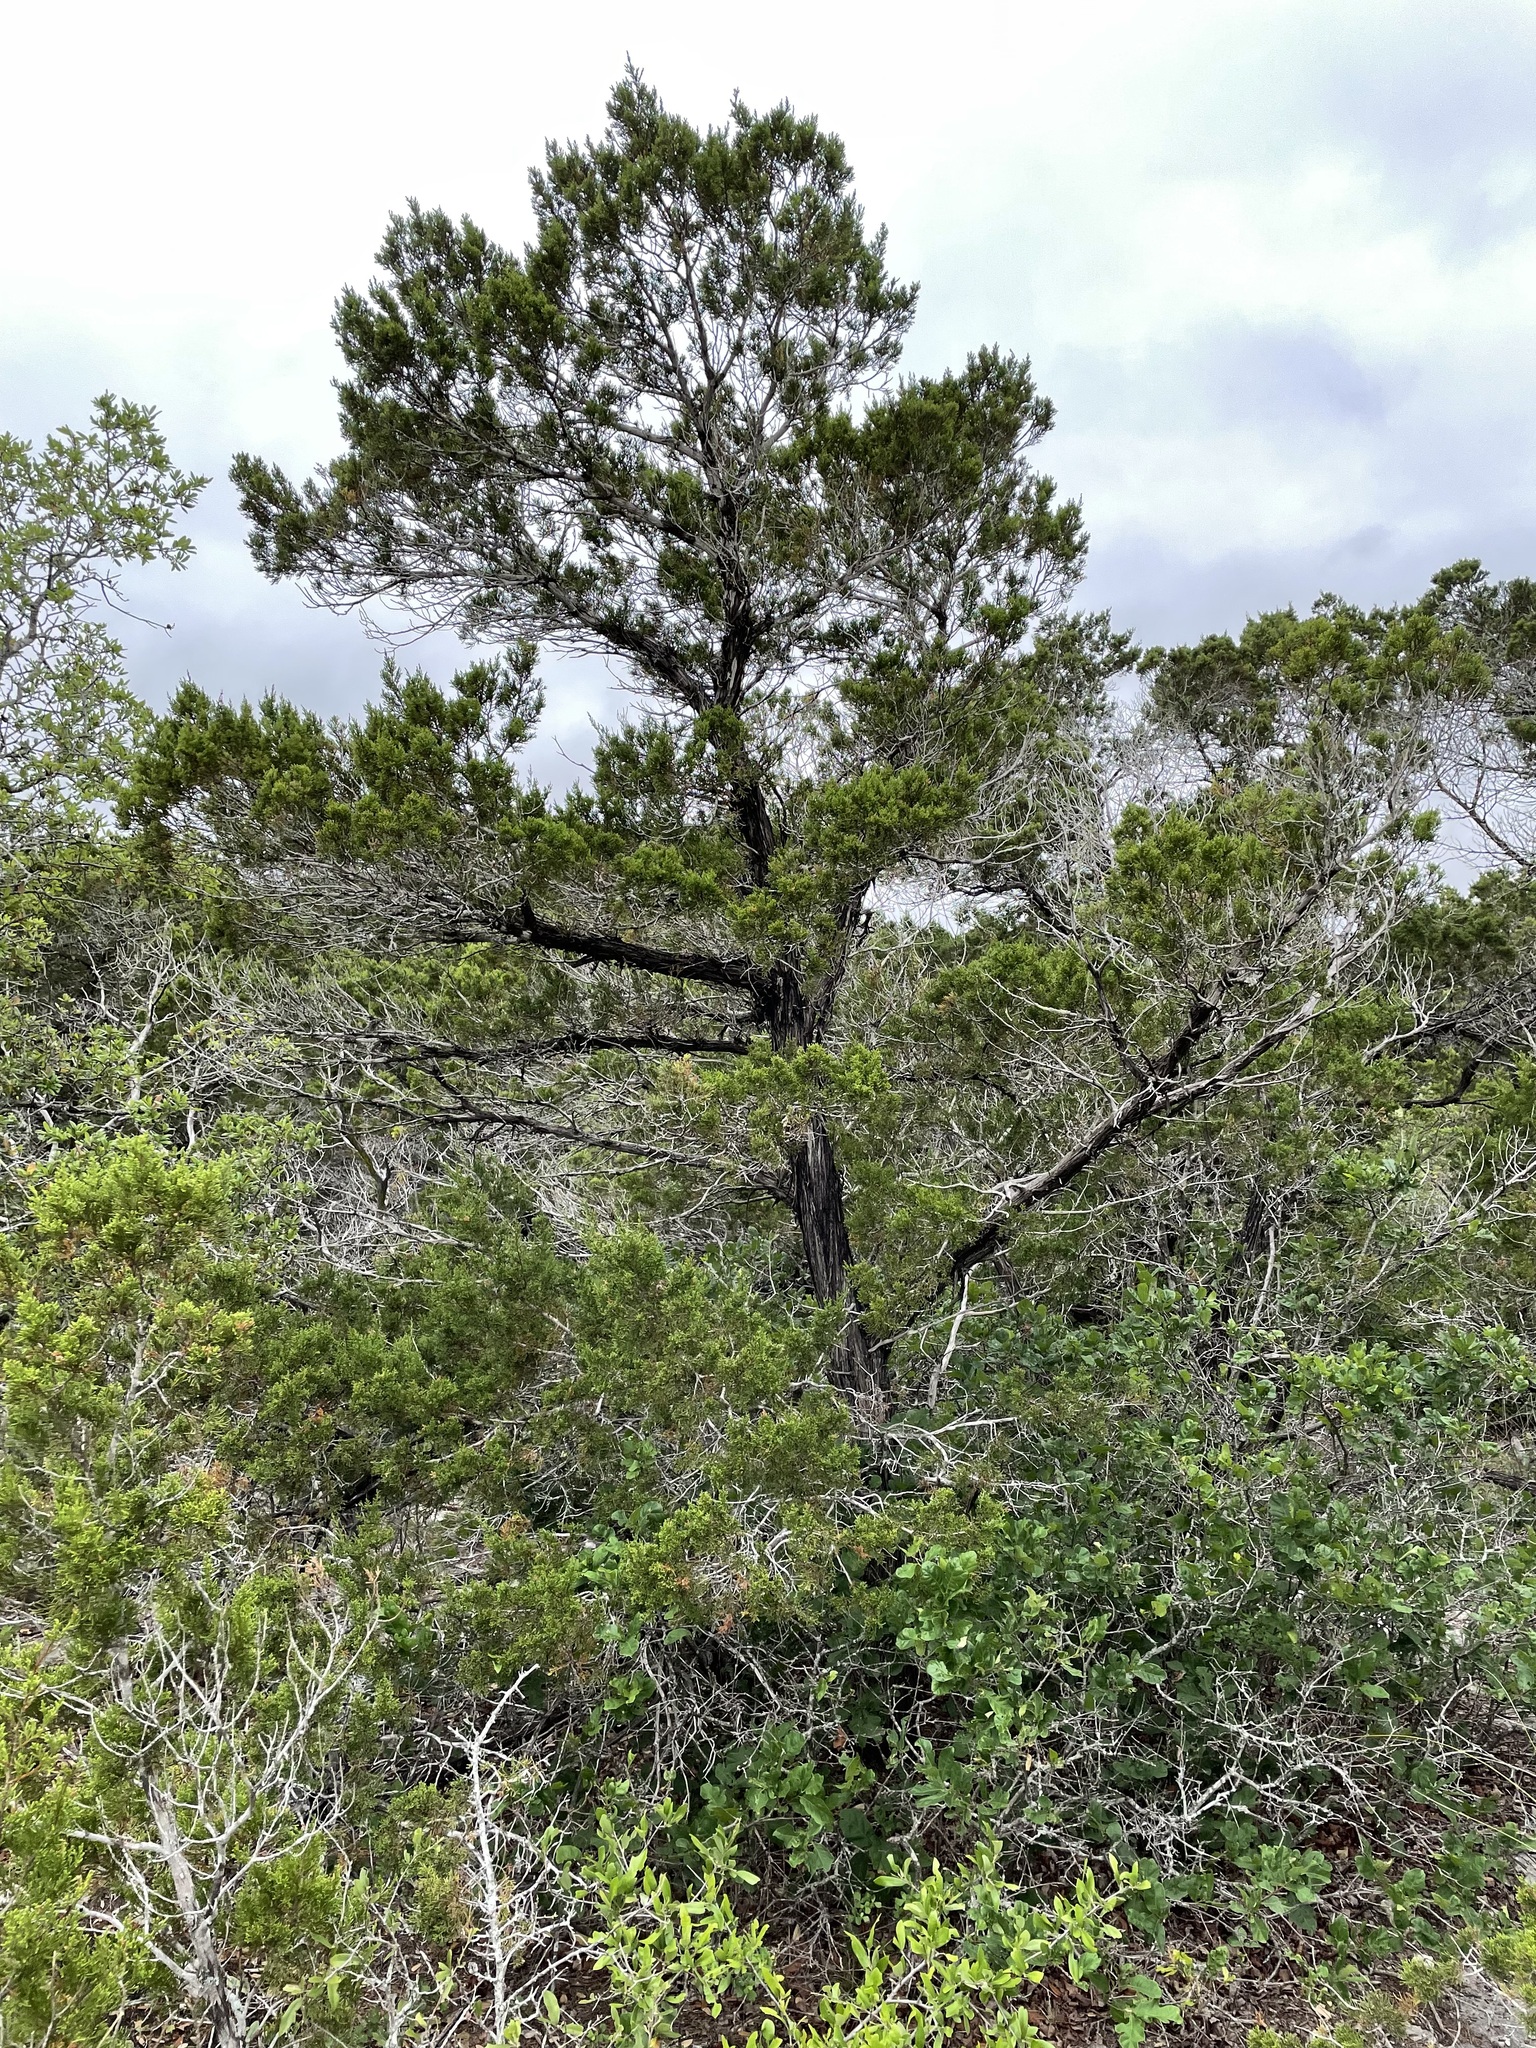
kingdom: Plantae
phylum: Tracheophyta
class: Pinopsida
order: Pinales
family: Cupressaceae
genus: Juniperus
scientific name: Juniperus ashei
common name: Mexican juniper
